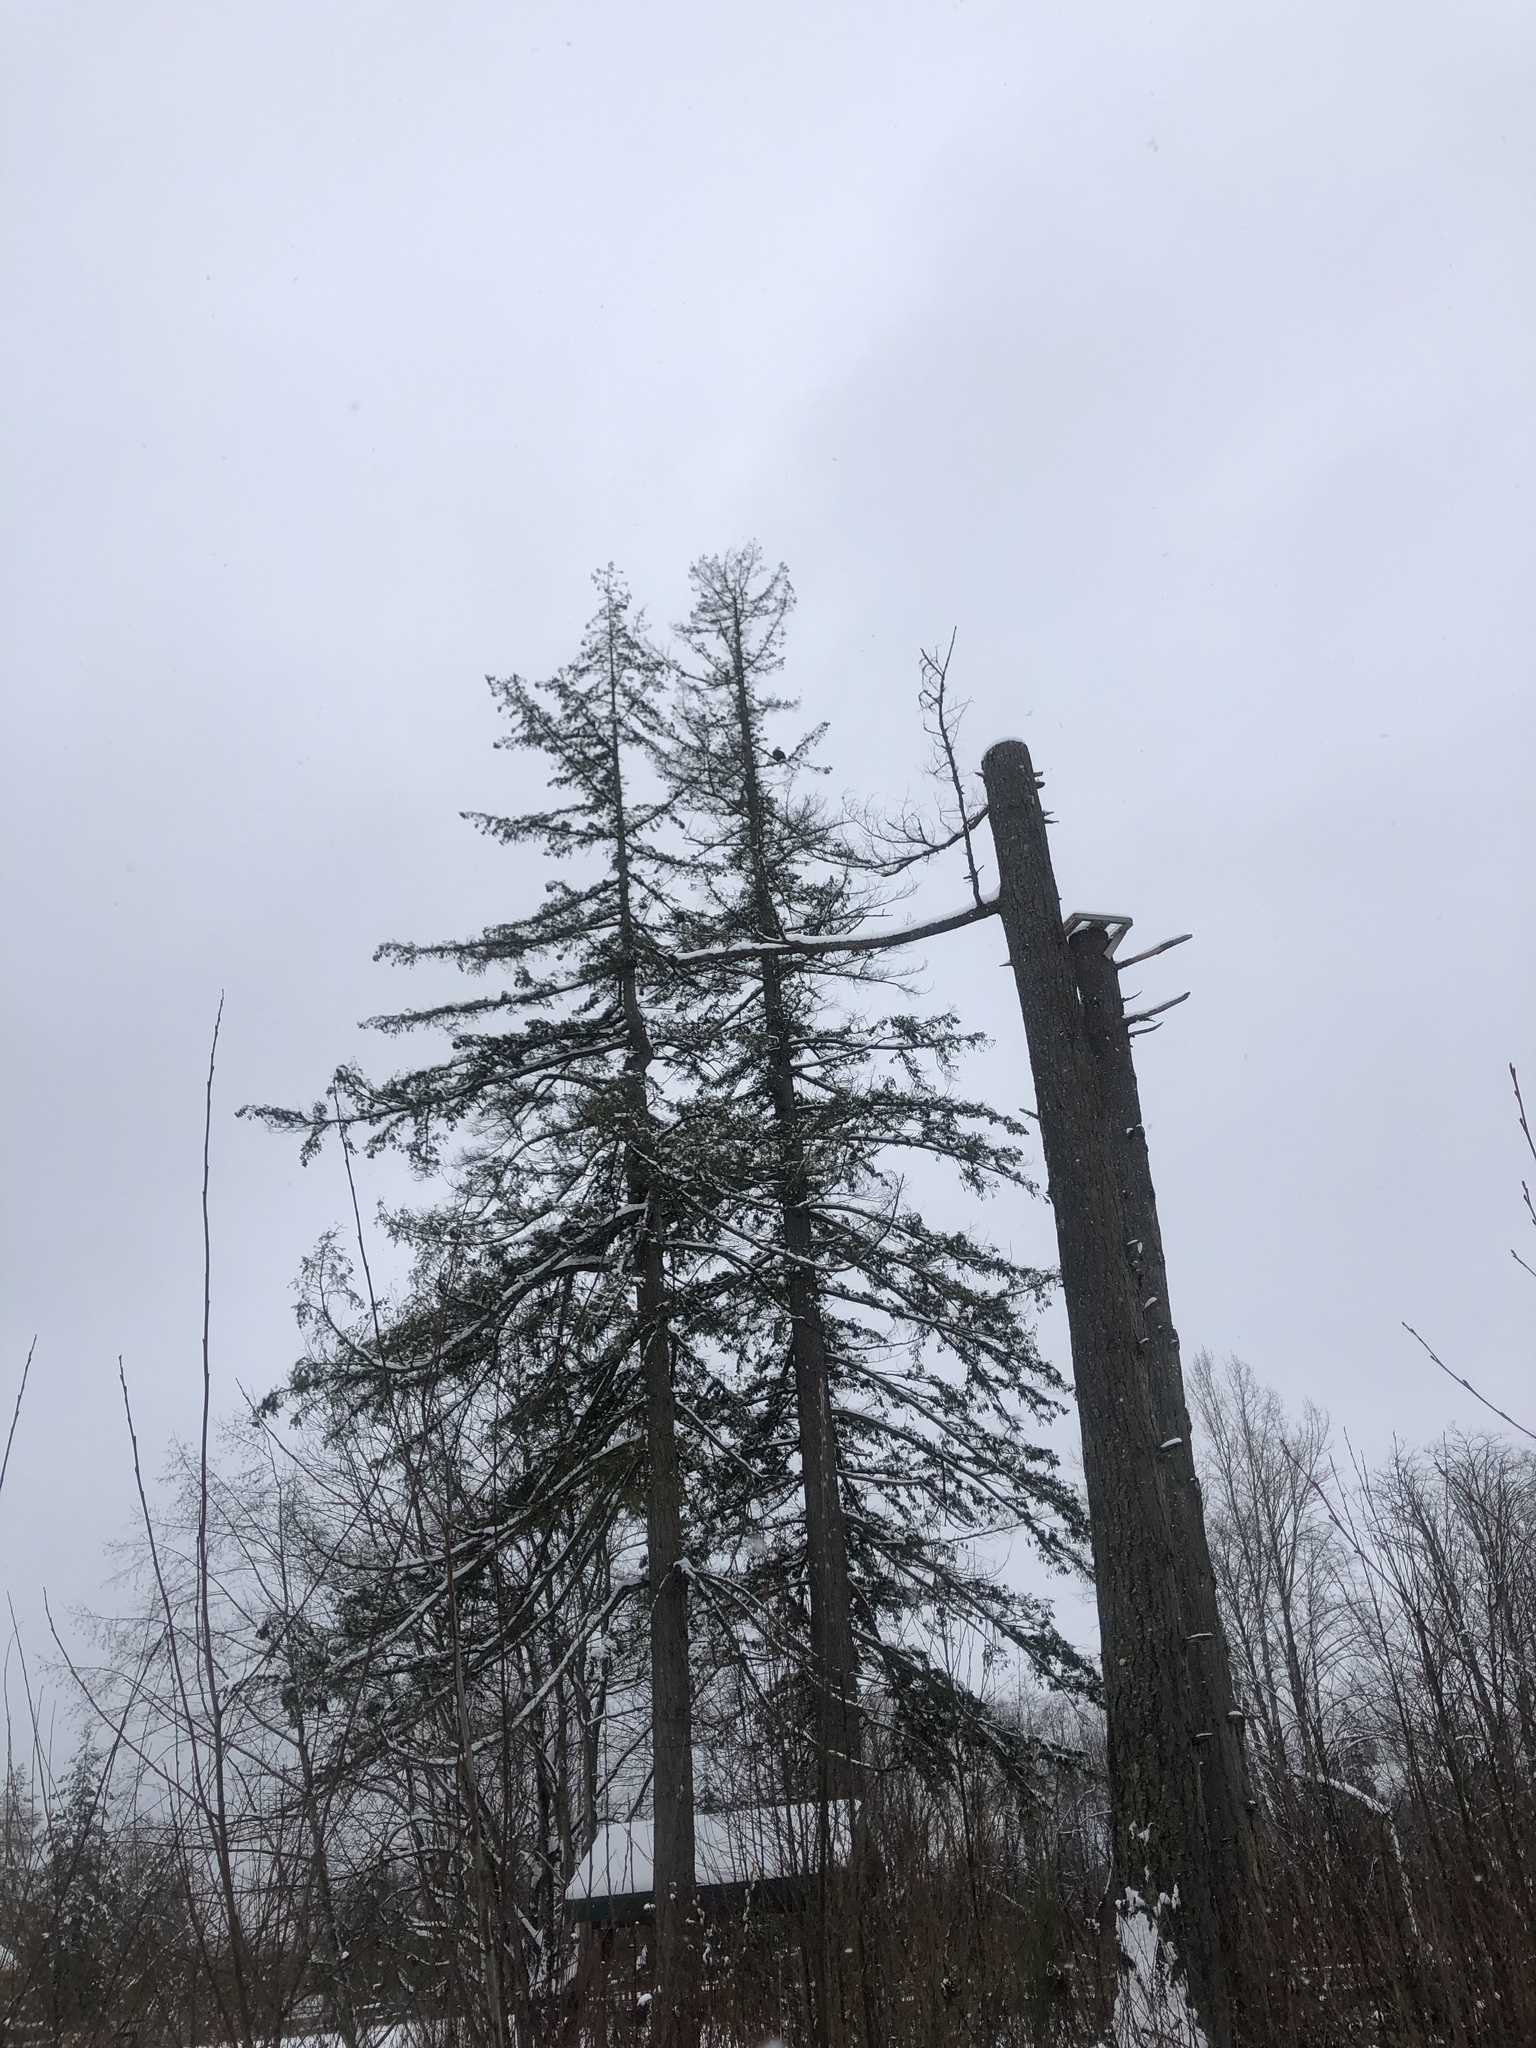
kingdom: Animalia
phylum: Chordata
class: Aves
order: Accipitriformes
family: Accipitridae
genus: Haliaeetus
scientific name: Haliaeetus leucocephalus
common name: Bald eagle
